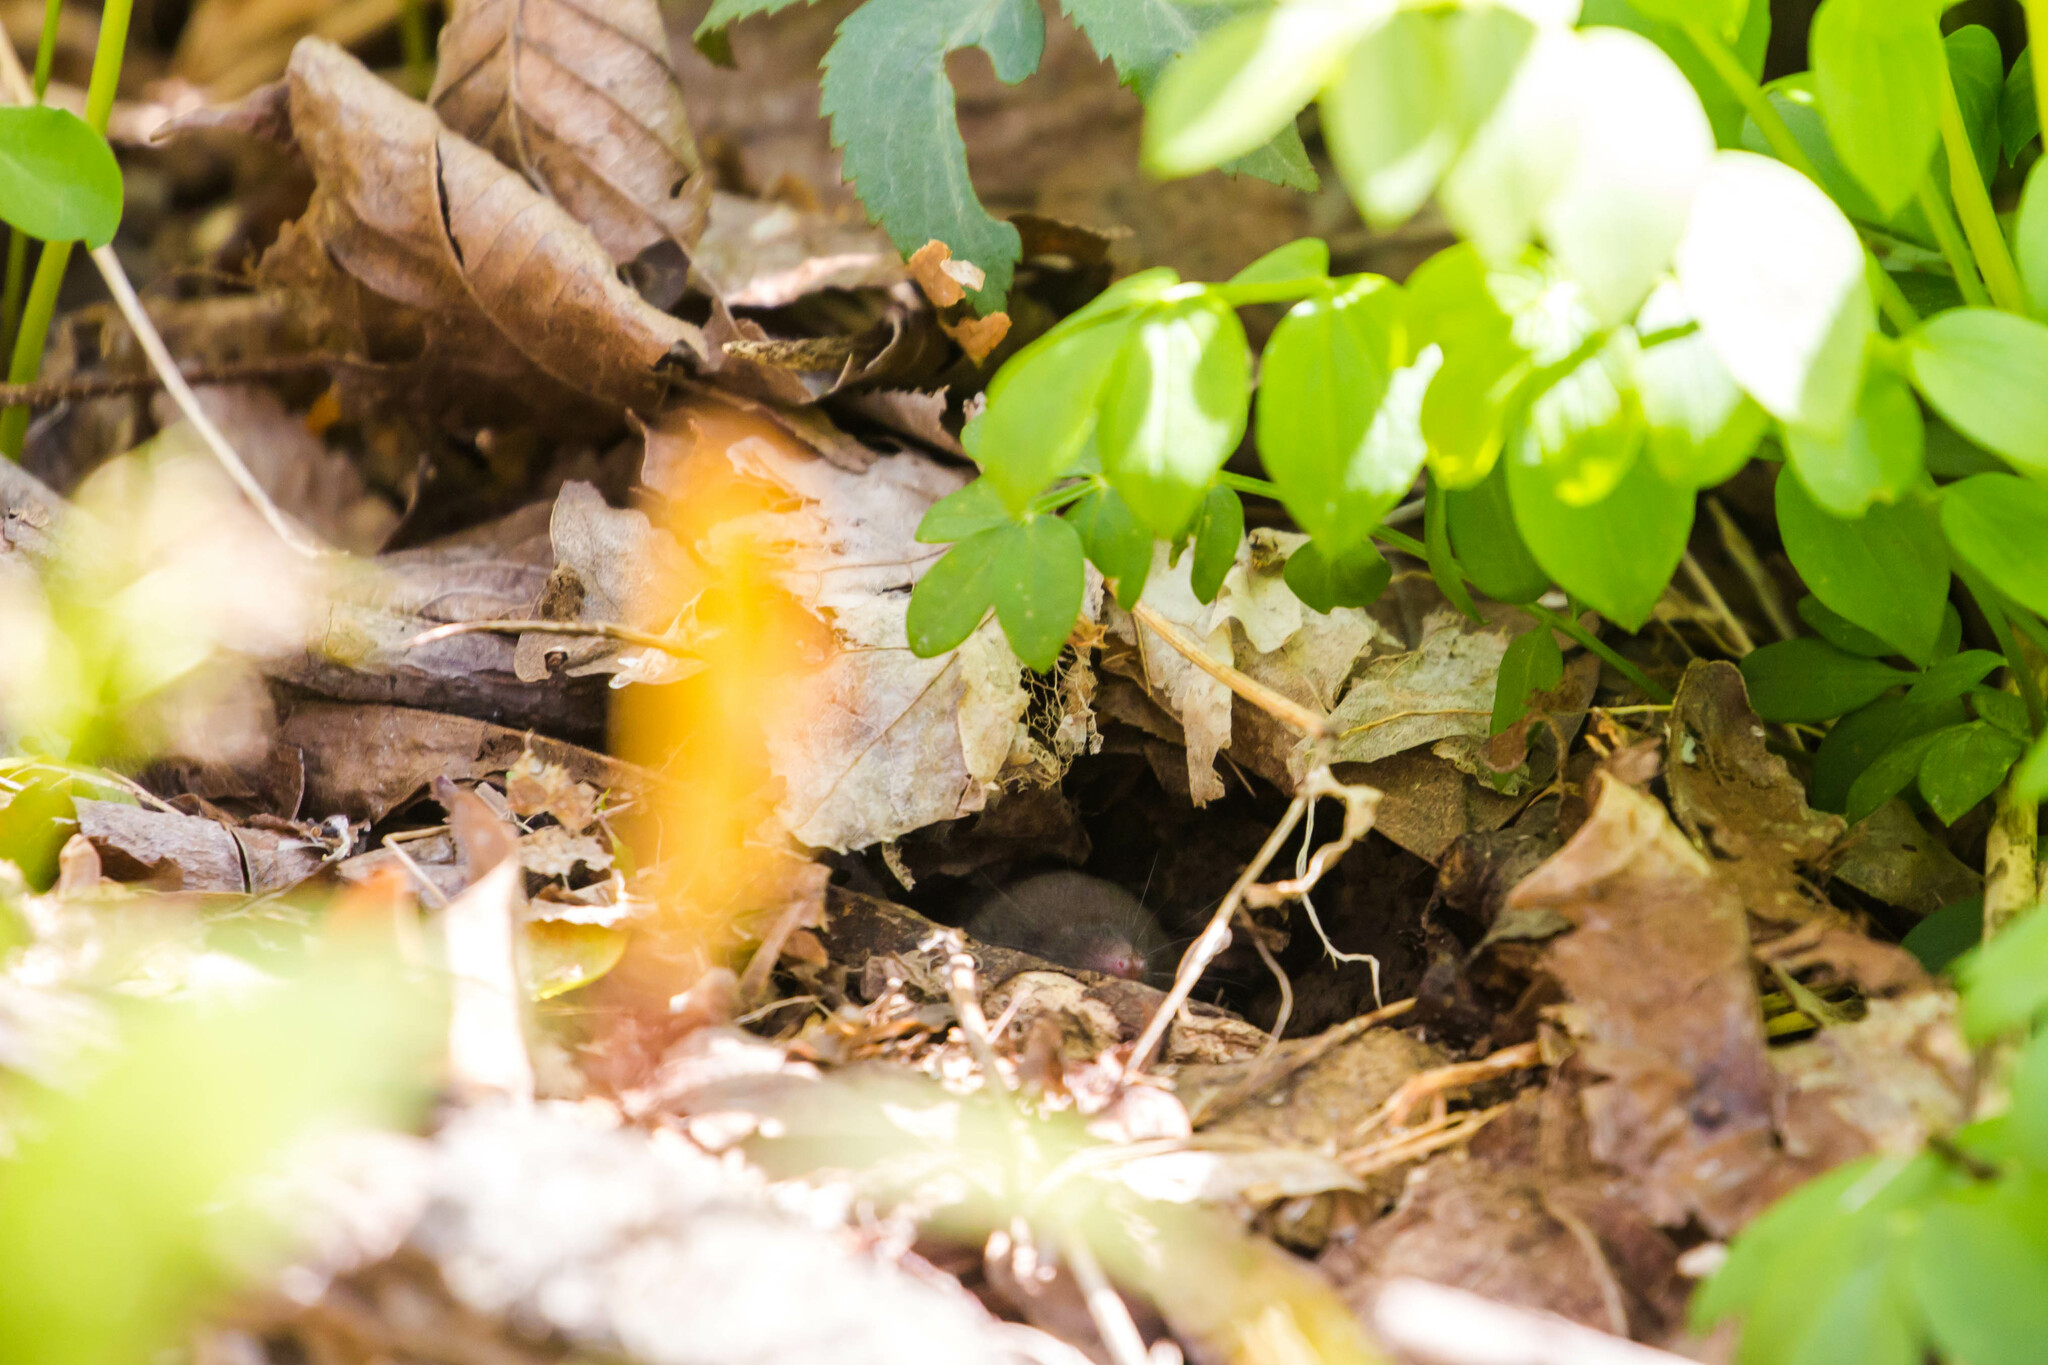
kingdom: Animalia
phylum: Chordata
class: Mammalia
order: Soricomorpha
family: Talpidae
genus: Scalopus
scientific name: Scalopus aquaticus
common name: Eastern mole
